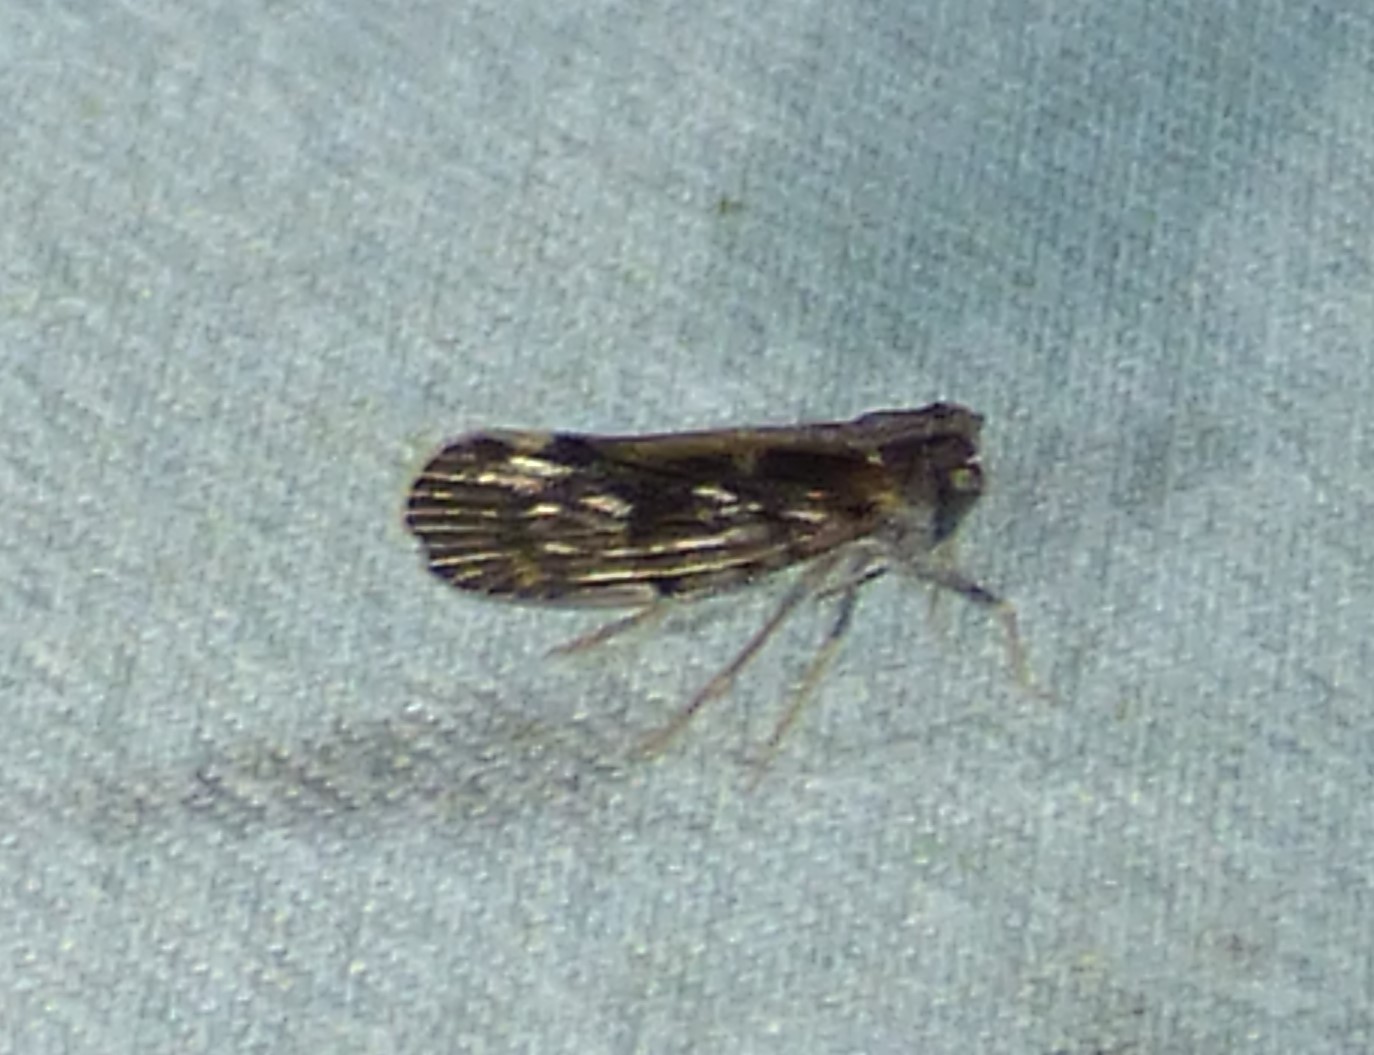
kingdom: Animalia
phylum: Arthropoda
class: Insecta
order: Hemiptera
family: Cixiidae
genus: Pintalia
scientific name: Pintalia vibex
